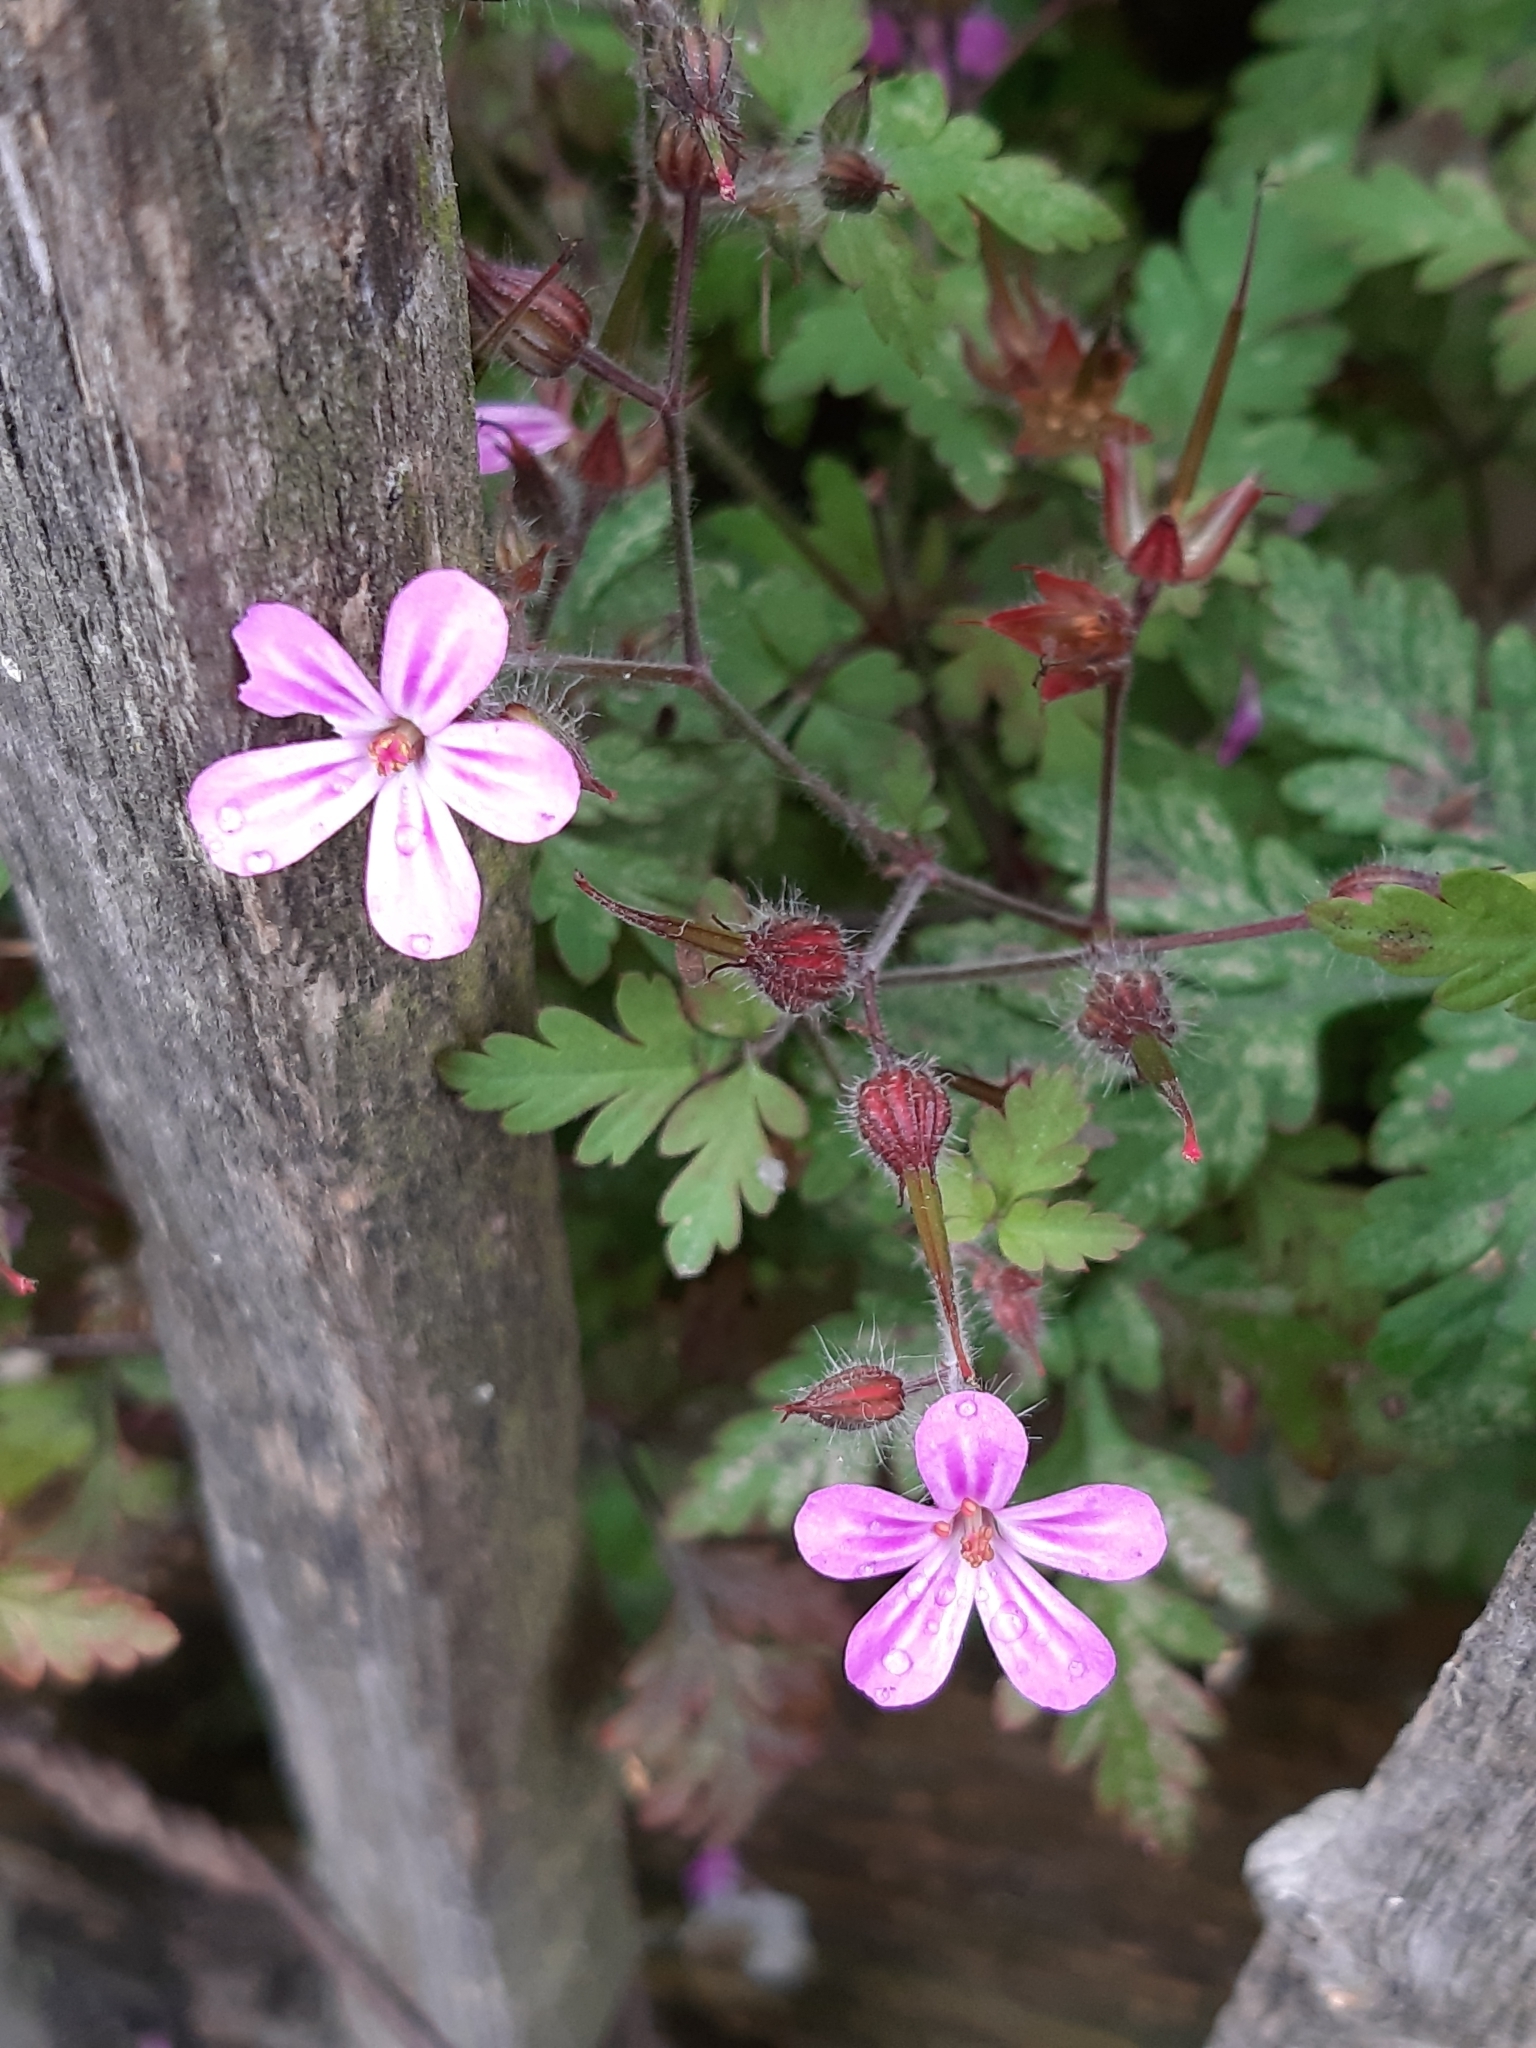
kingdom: Plantae
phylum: Tracheophyta
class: Magnoliopsida
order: Geraniales
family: Geraniaceae
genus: Geranium
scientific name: Geranium robertianum
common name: Herb-robert
